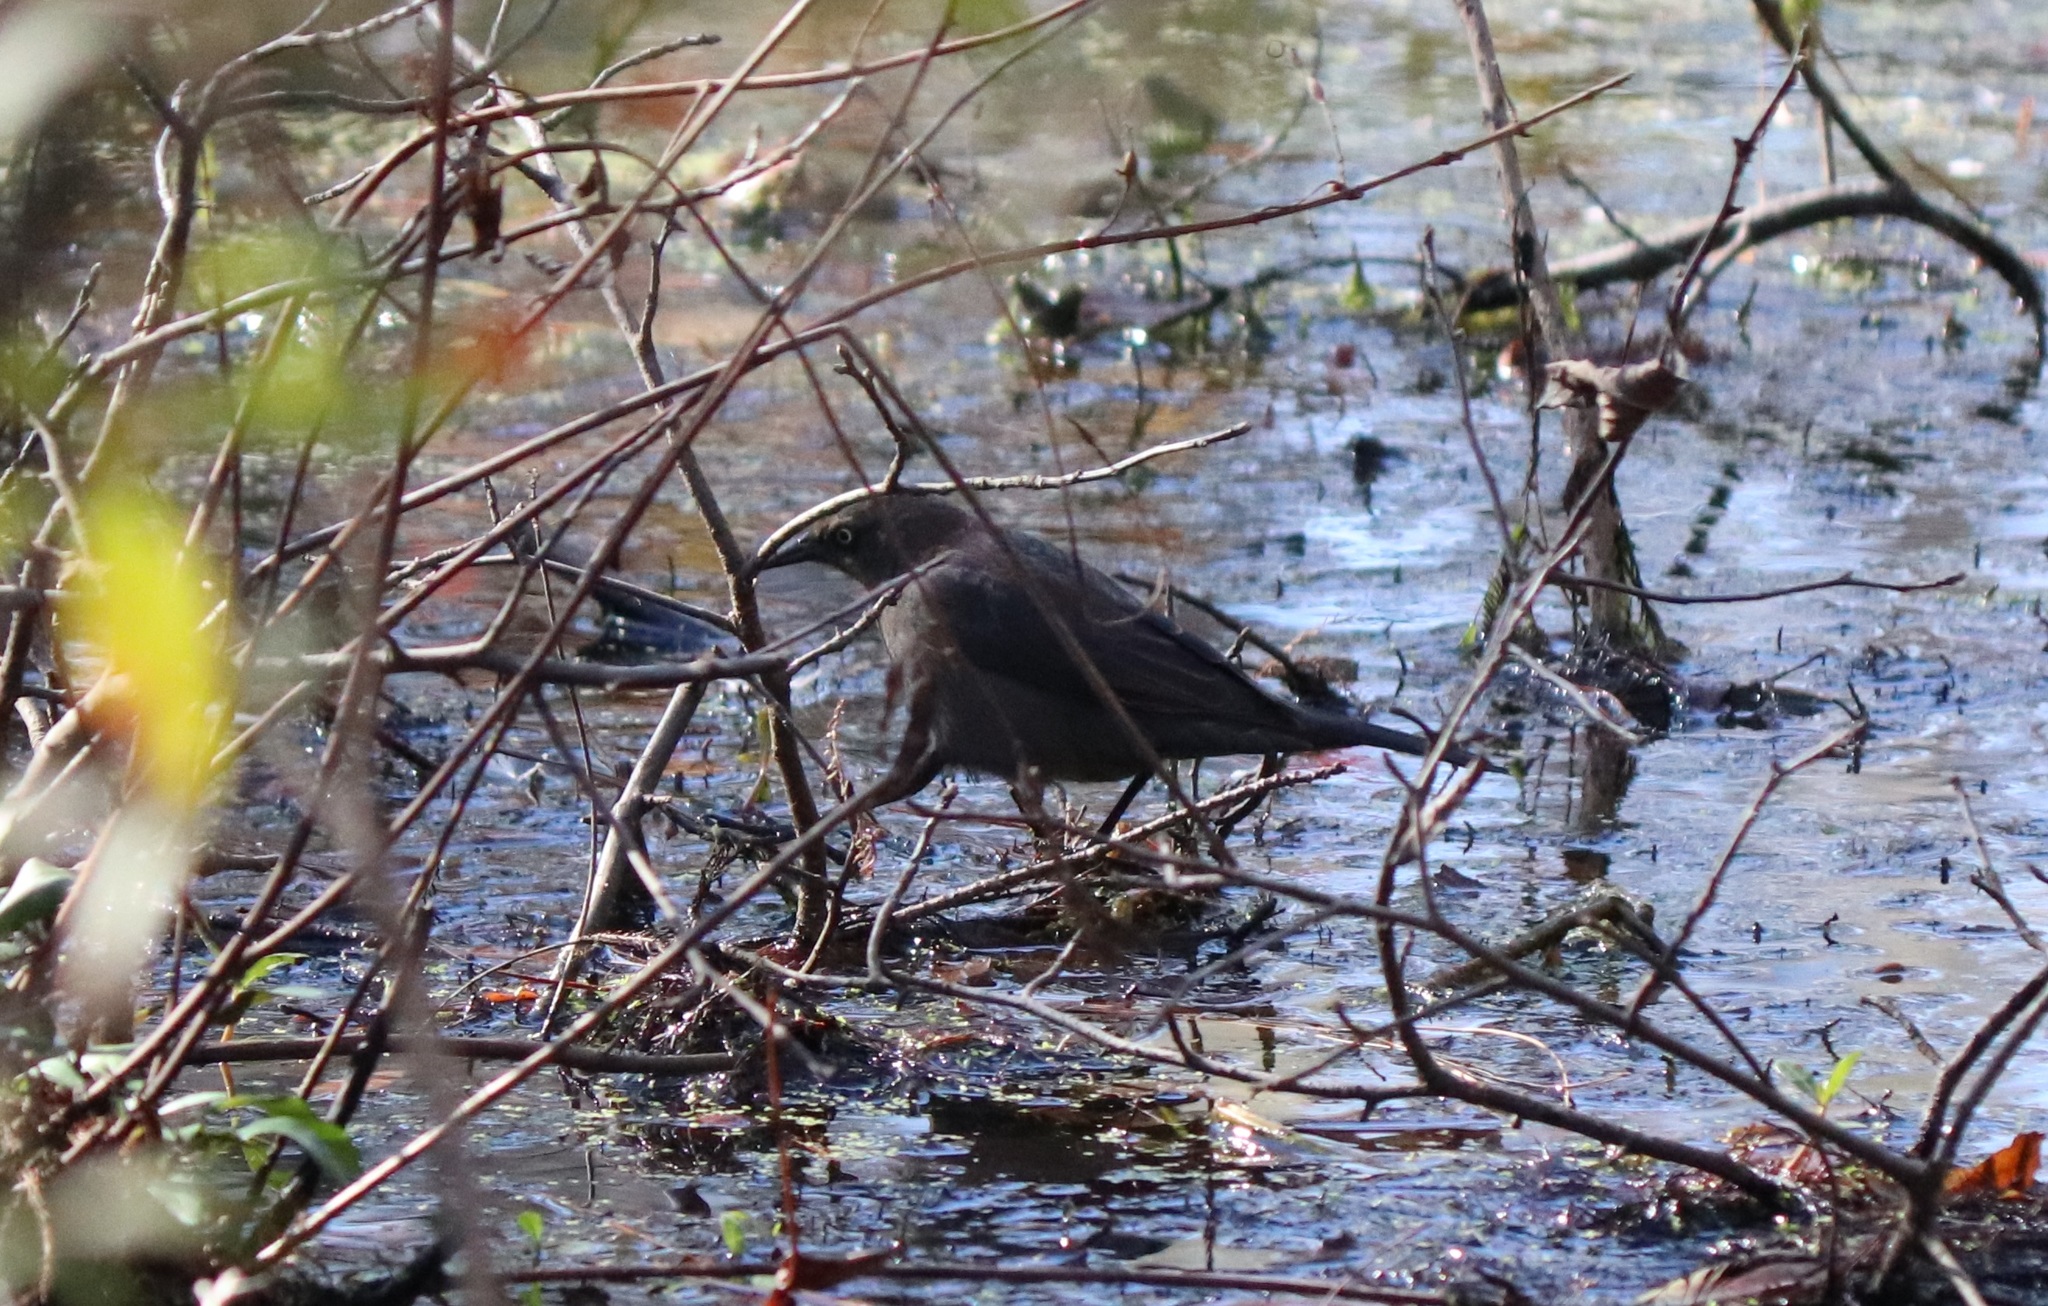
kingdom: Animalia
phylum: Chordata
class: Aves
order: Passeriformes
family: Icteridae
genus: Euphagus
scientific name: Euphagus carolinus
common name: Rusty blackbird
